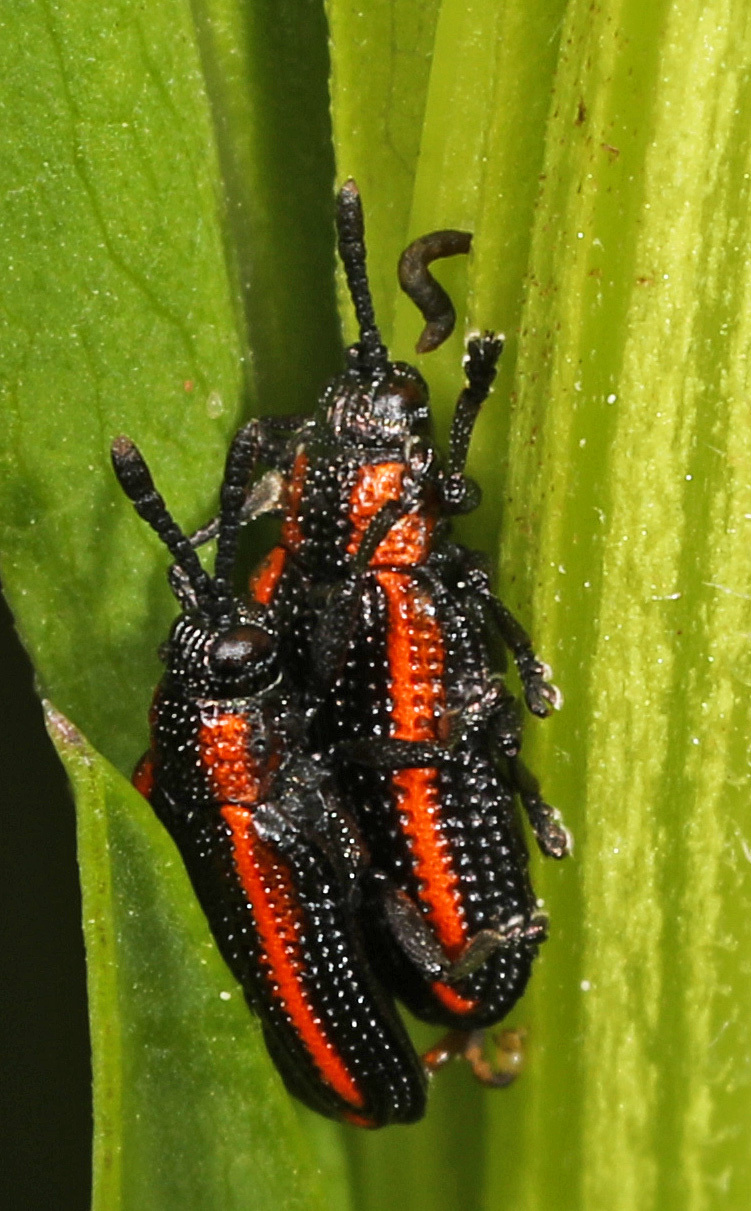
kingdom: Animalia
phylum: Arthropoda
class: Insecta
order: Coleoptera
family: Chrysomelidae
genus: Microrhopala
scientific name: Microrhopala xerene
